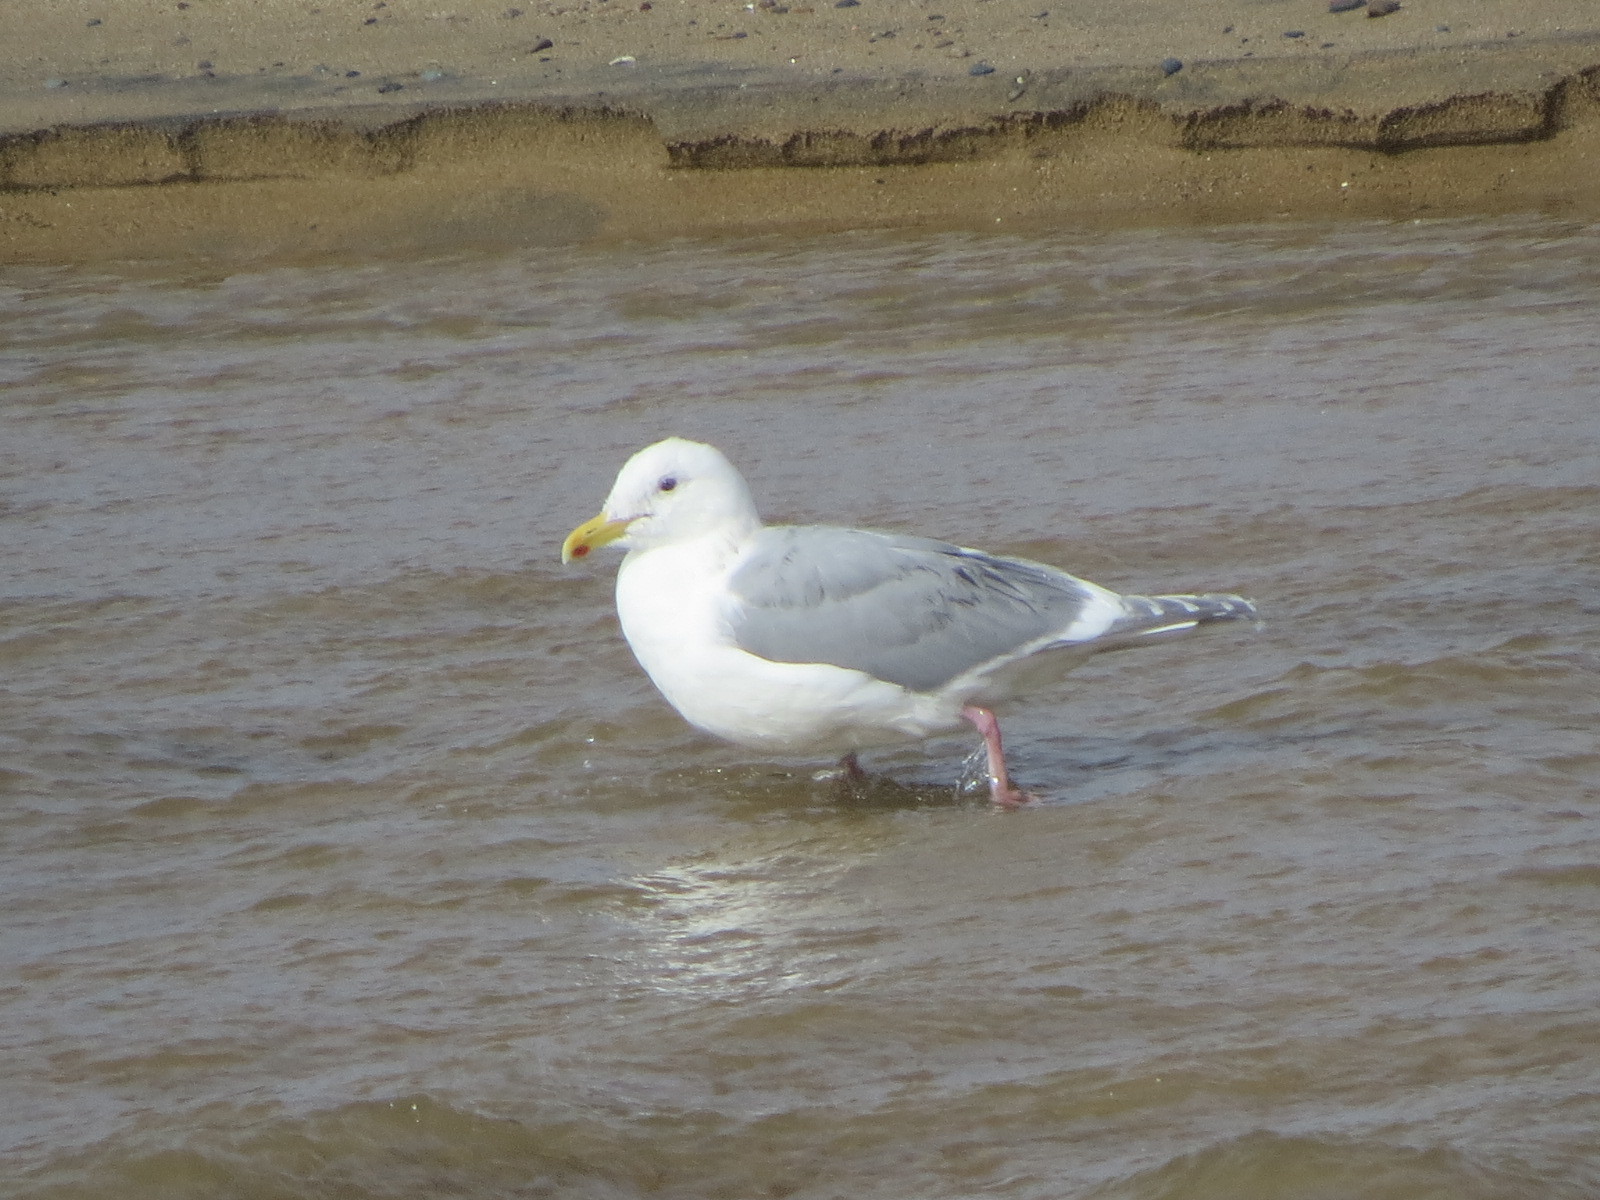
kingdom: Animalia
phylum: Chordata
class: Aves
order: Charadriiformes
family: Laridae
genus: Larus
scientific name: Larus glaucescens
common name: Glaucous-winged gull
